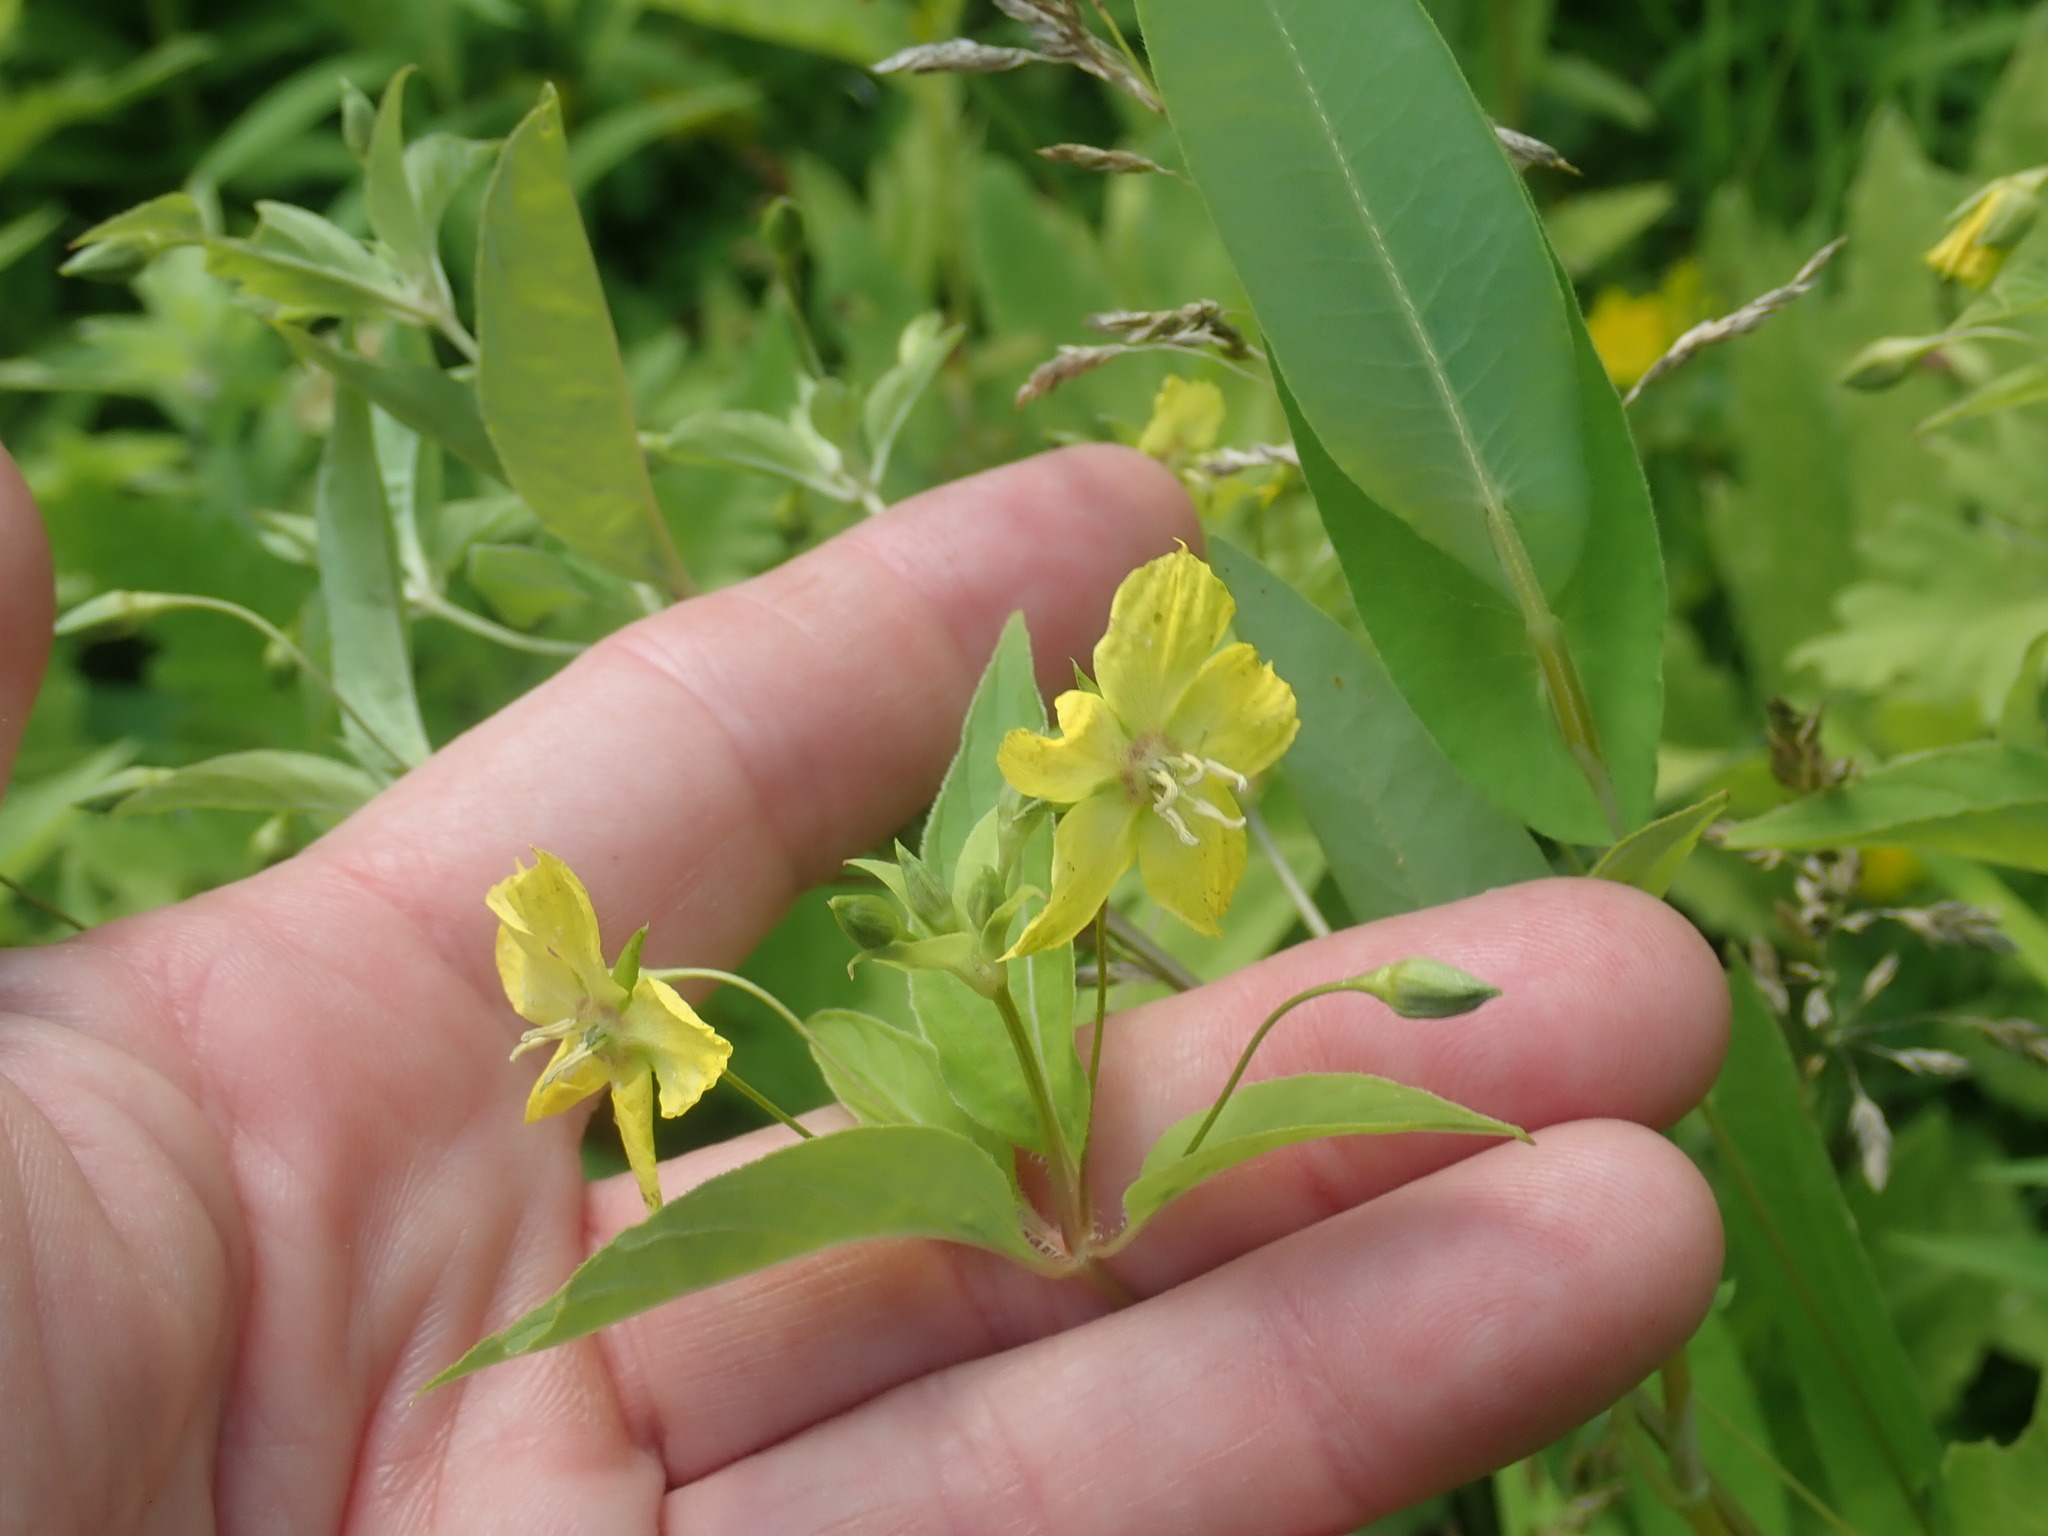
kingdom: Plantae
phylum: Tracheophyta
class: Magnoliopsida
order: Ericales
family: Primulaceae
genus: Lysimachia
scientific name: Lysimachia ciliata
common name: Fringed loosestrife
